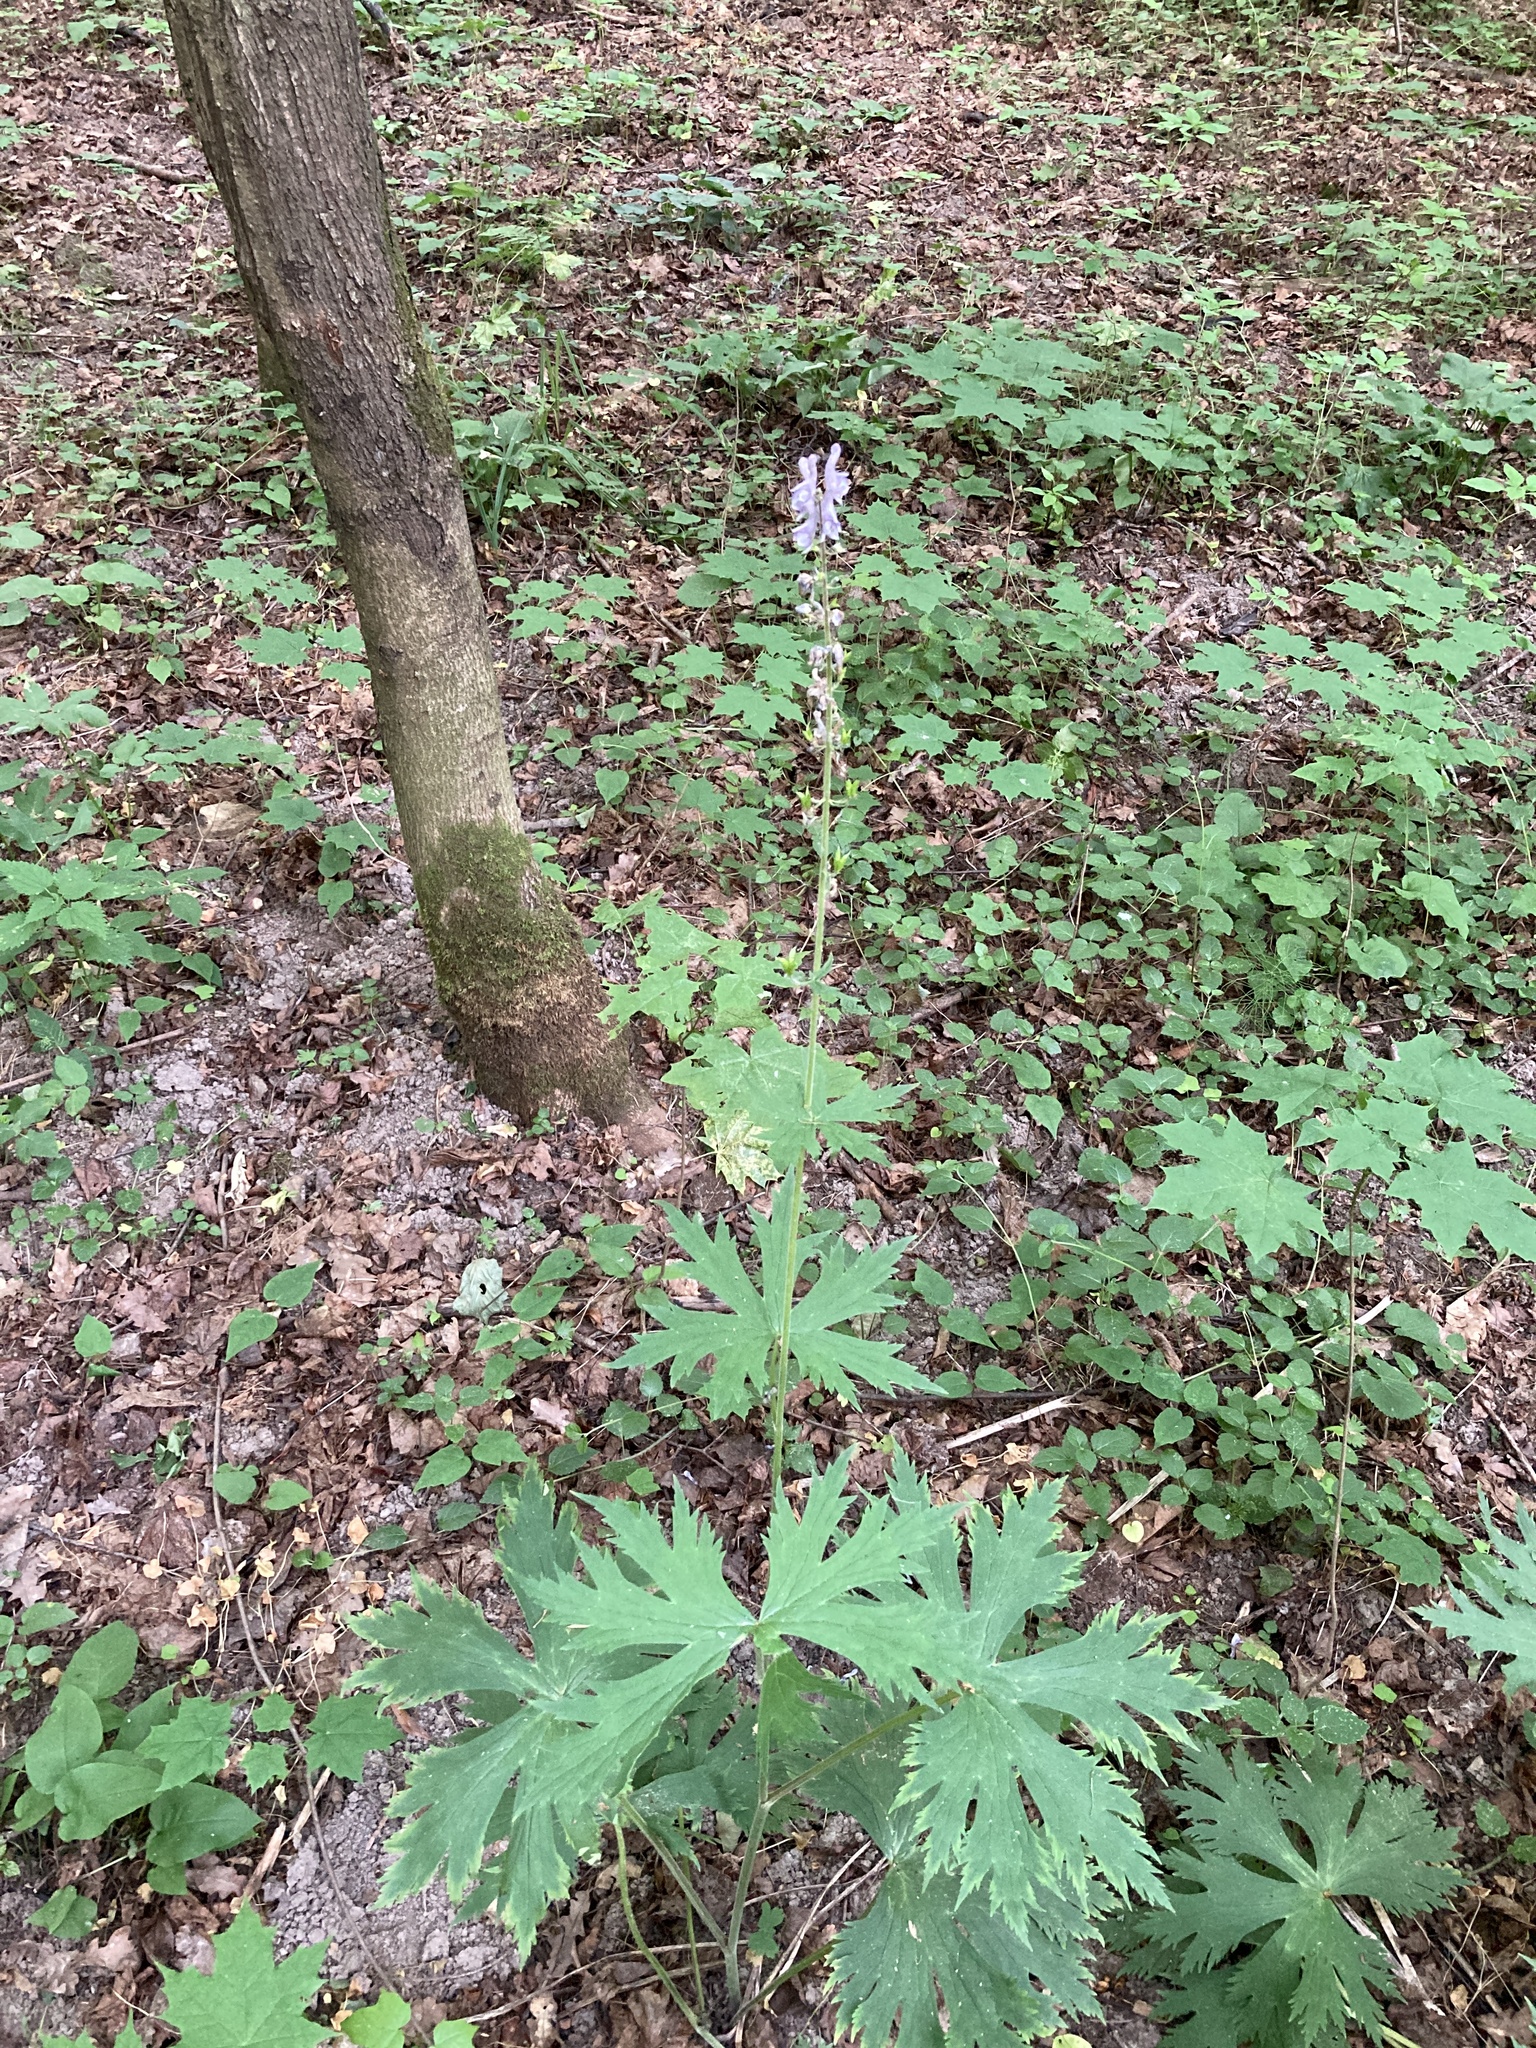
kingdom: Plantae
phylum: Tracheophyta
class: Magnoliopsida
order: Ranunculales
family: Ranunculaceae
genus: Aconitum
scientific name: Aconitum septentrionale
